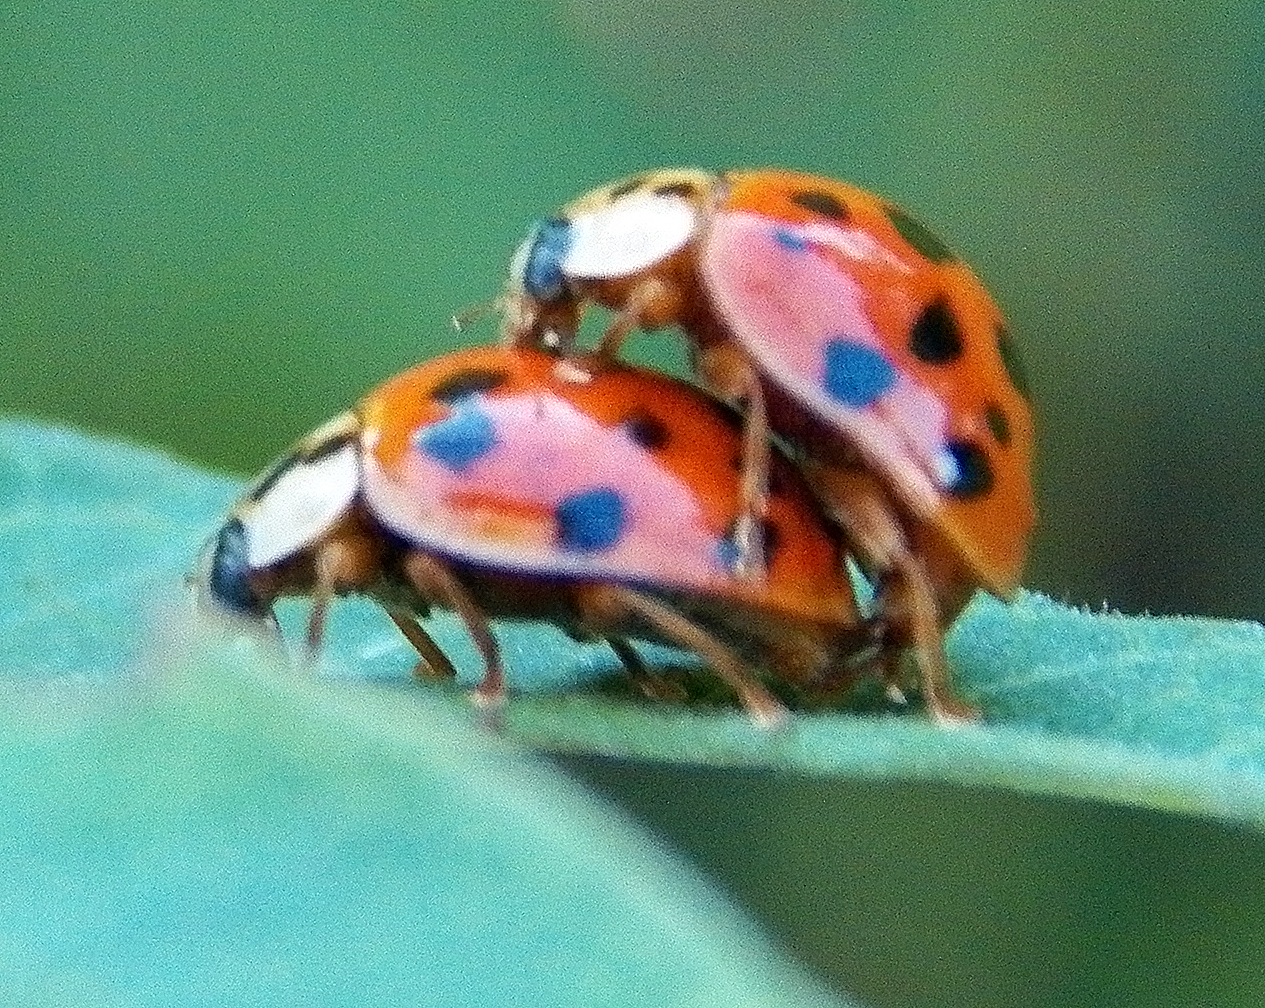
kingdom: Animalia
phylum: Arthropoda
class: Insecta
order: Coleoptera
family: Coccinellidae
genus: Harmonia
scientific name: Harmonia axyridis
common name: Harlequin ladybird
